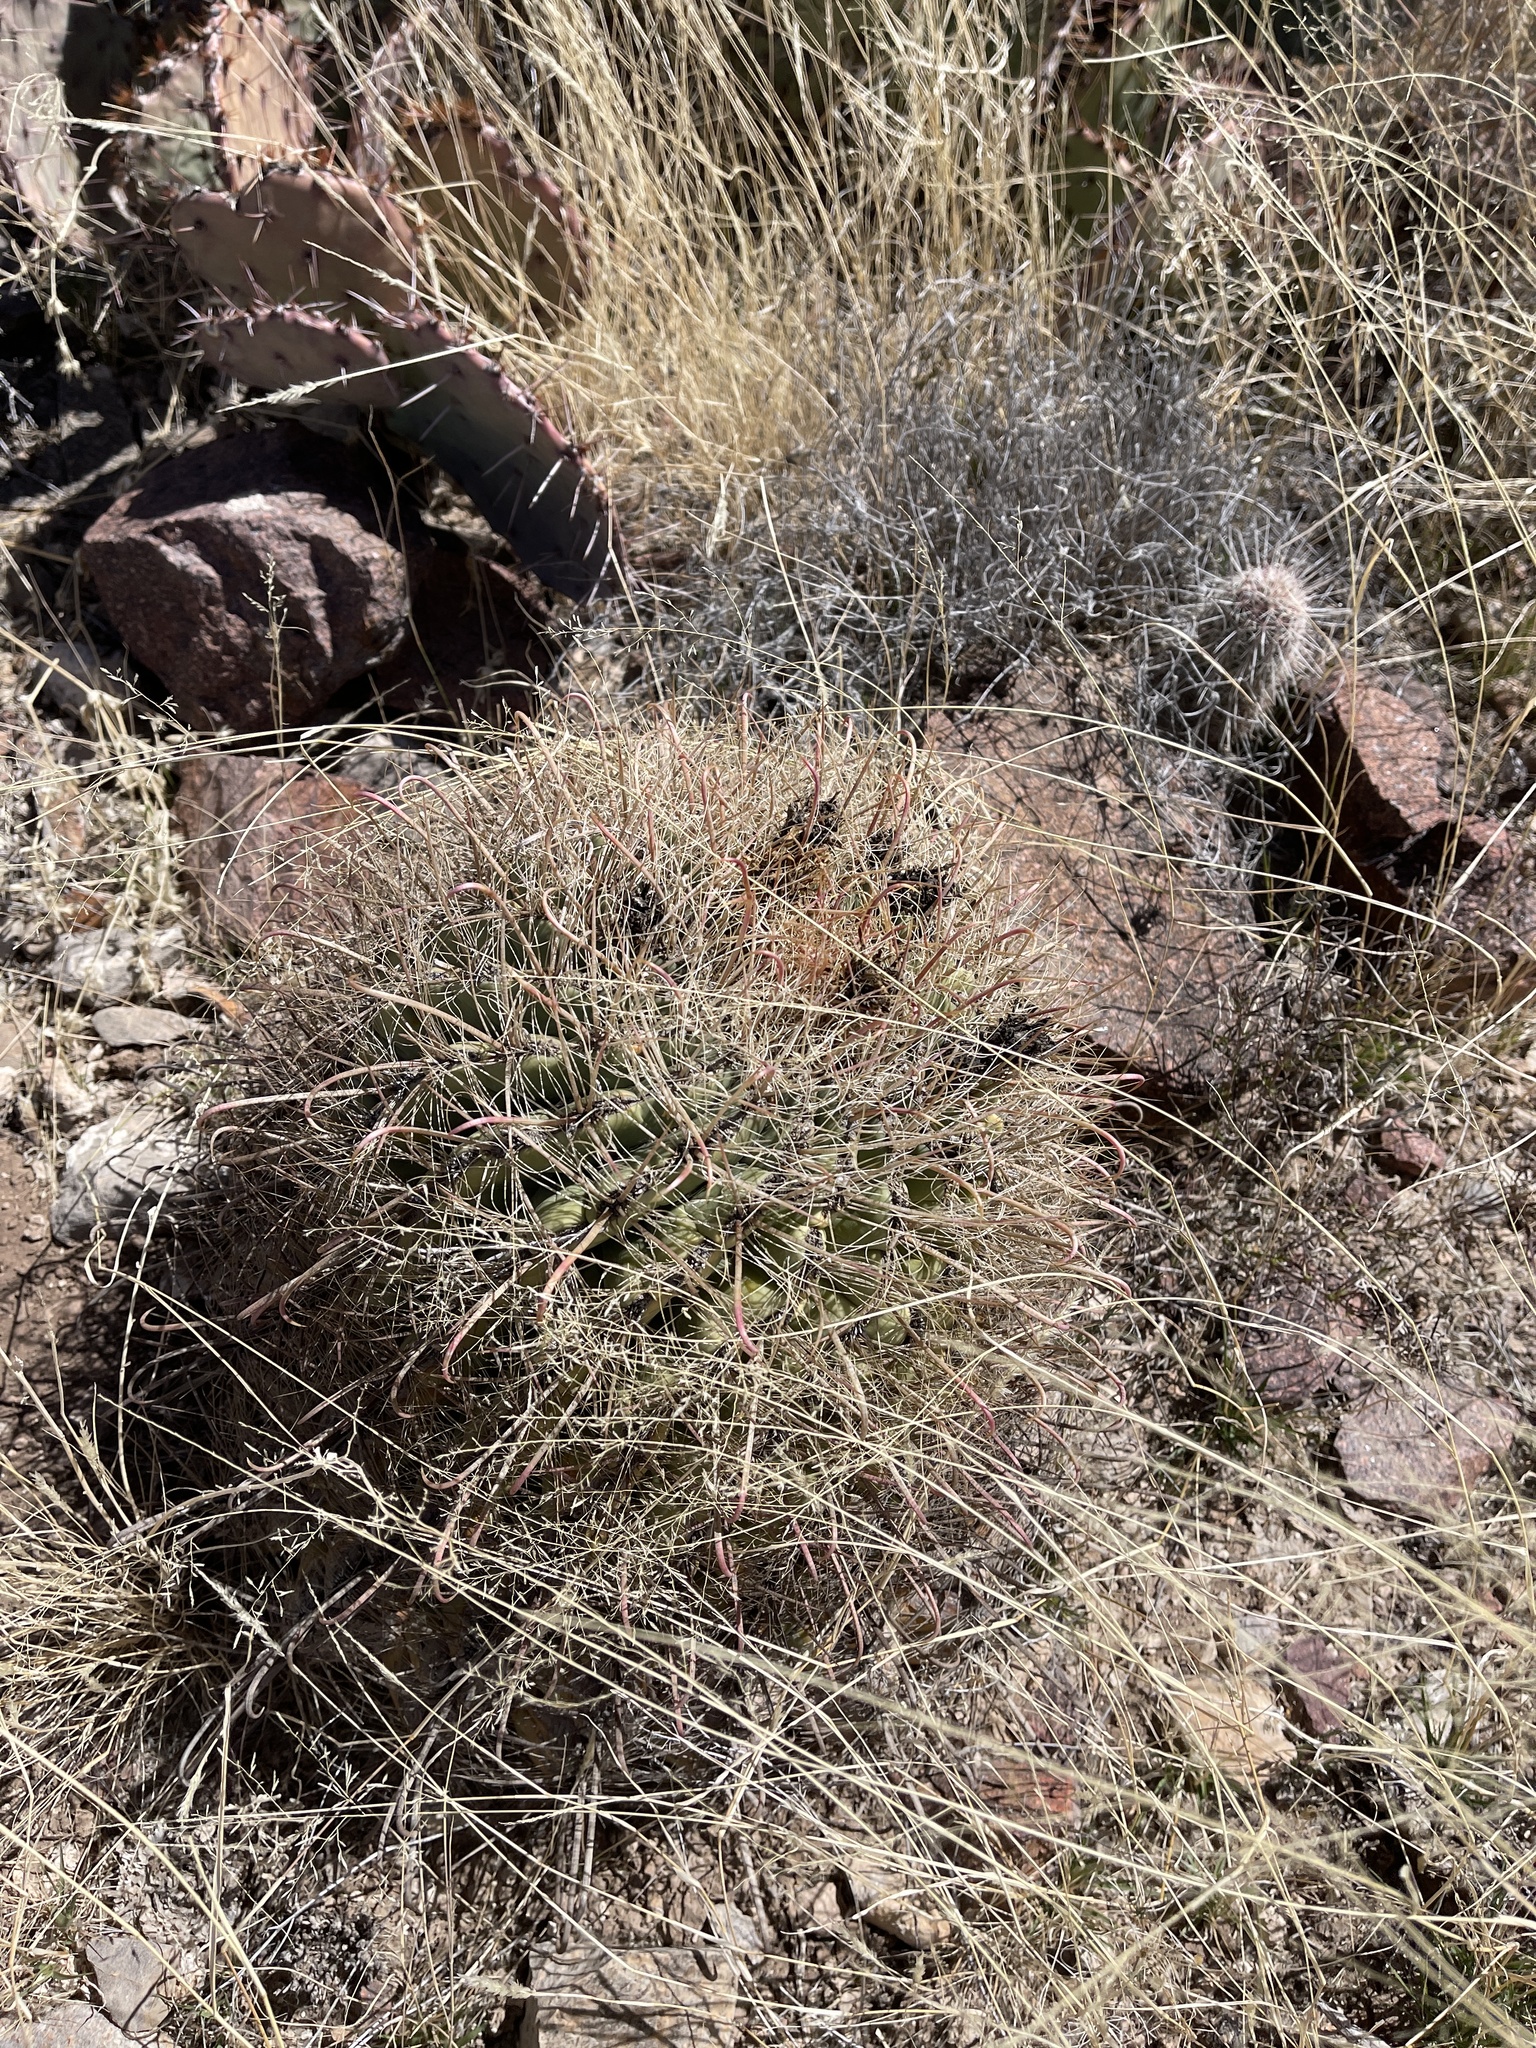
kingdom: Plantae
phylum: Tracheophyta
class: Magnoliopsida
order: Caryophyllales
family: Cactaceae
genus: Ferocactus
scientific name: Ferocactus wislizeni
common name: Candy barrel cactus
